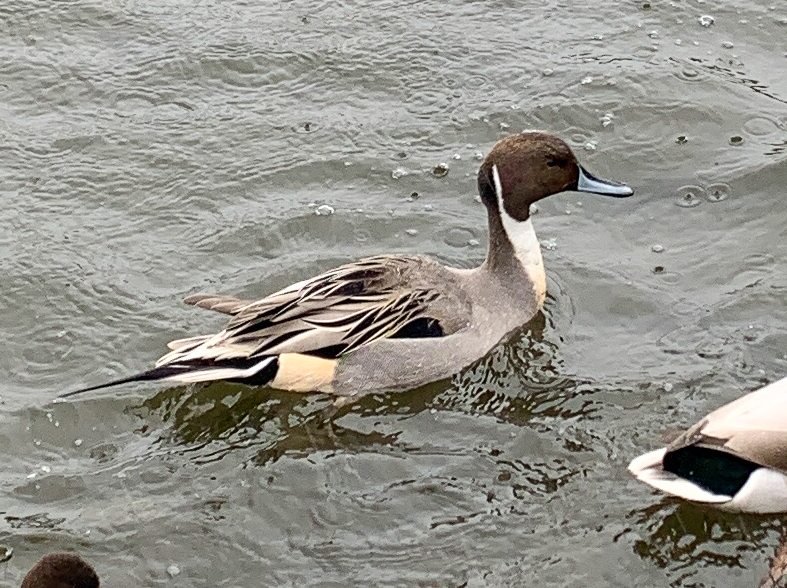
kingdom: Animalia
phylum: Chordata
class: Aves
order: Anseriformes
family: Anatidae
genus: Anas
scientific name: Anas acuta
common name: Northern pintail
